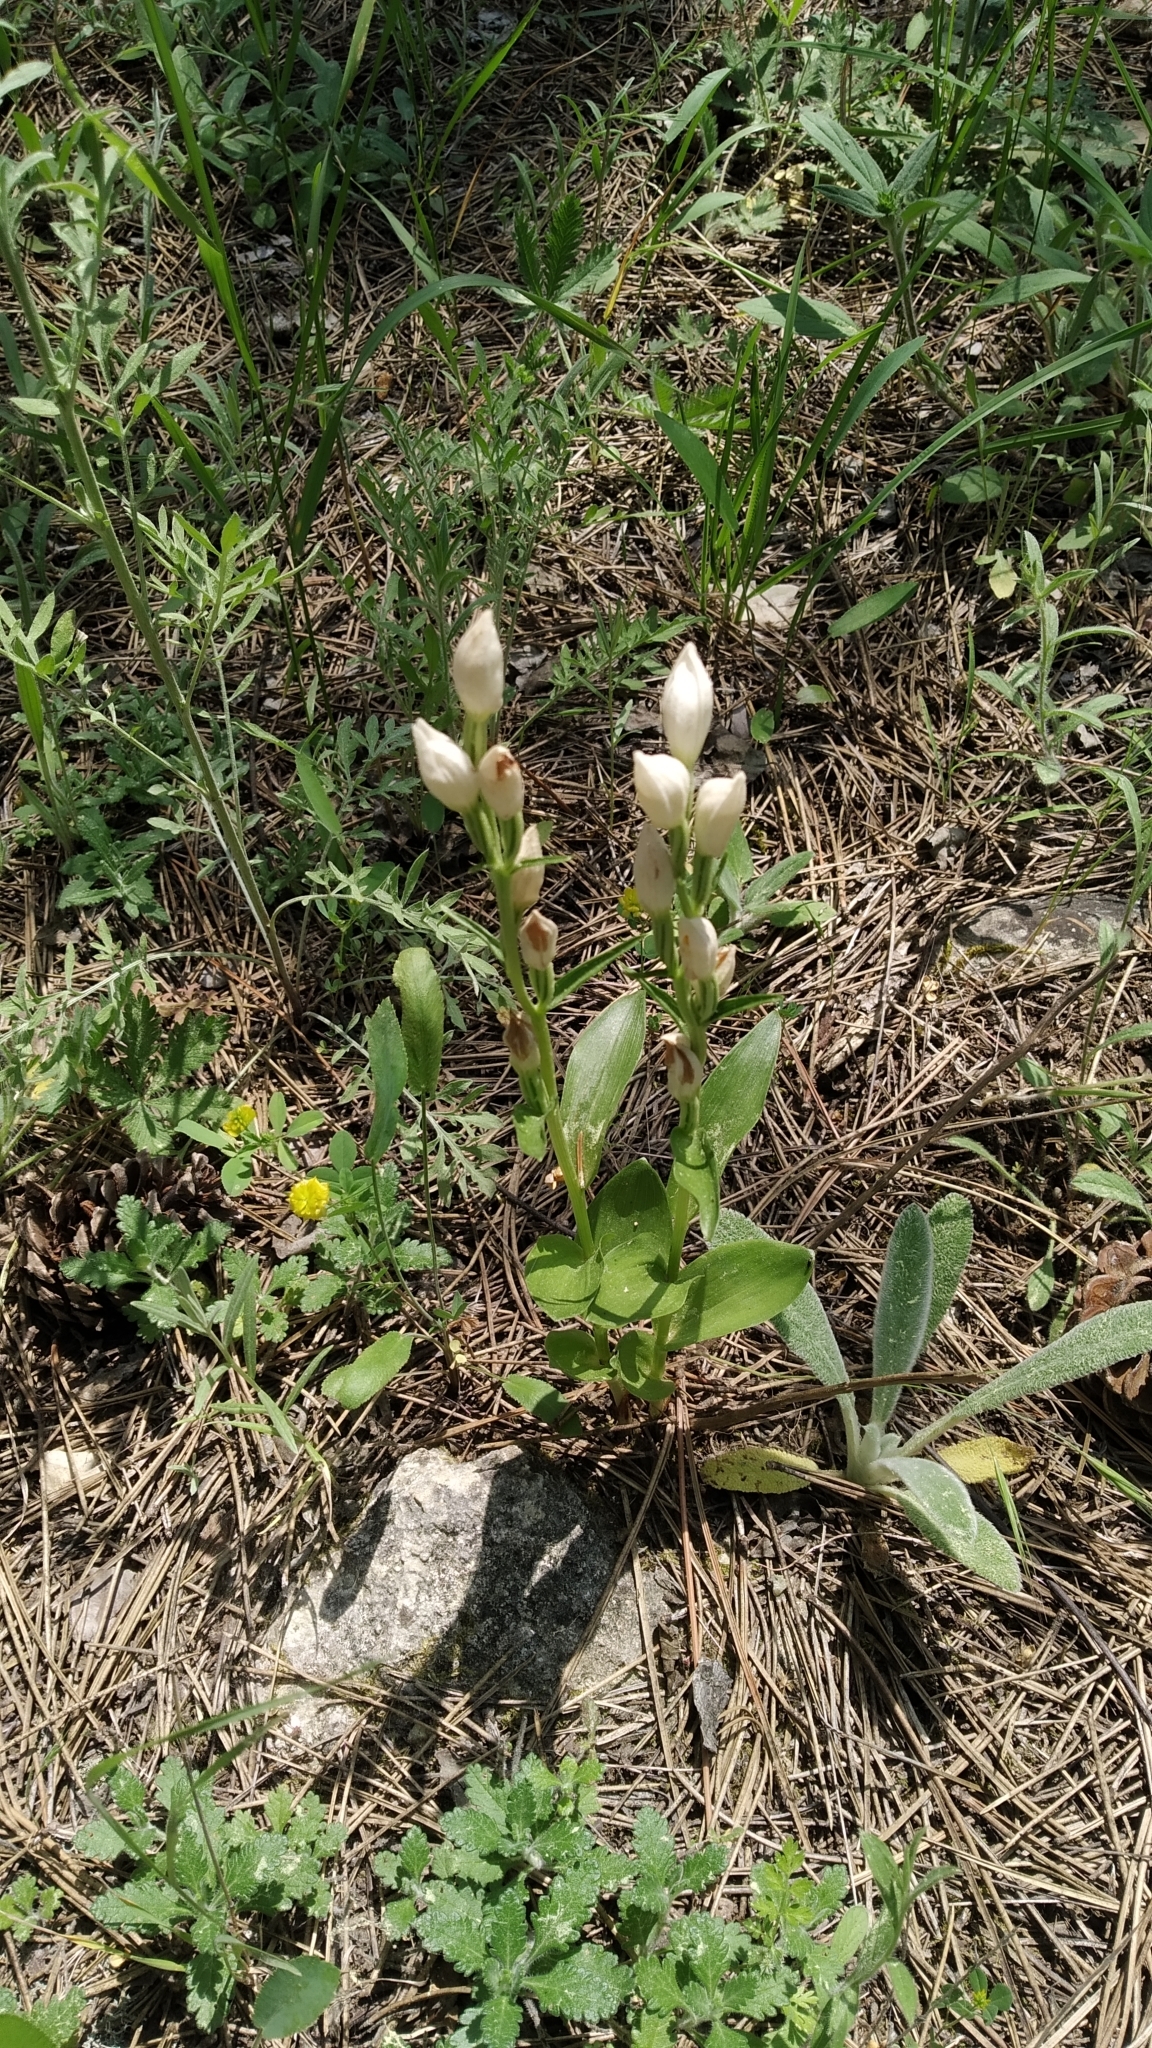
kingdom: Plantae
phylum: Tracheophyta
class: Liliopsida
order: Asparagales
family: Orchidaceae
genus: Cephalanthera
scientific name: Cephalanthera damasonium
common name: White helleborine
